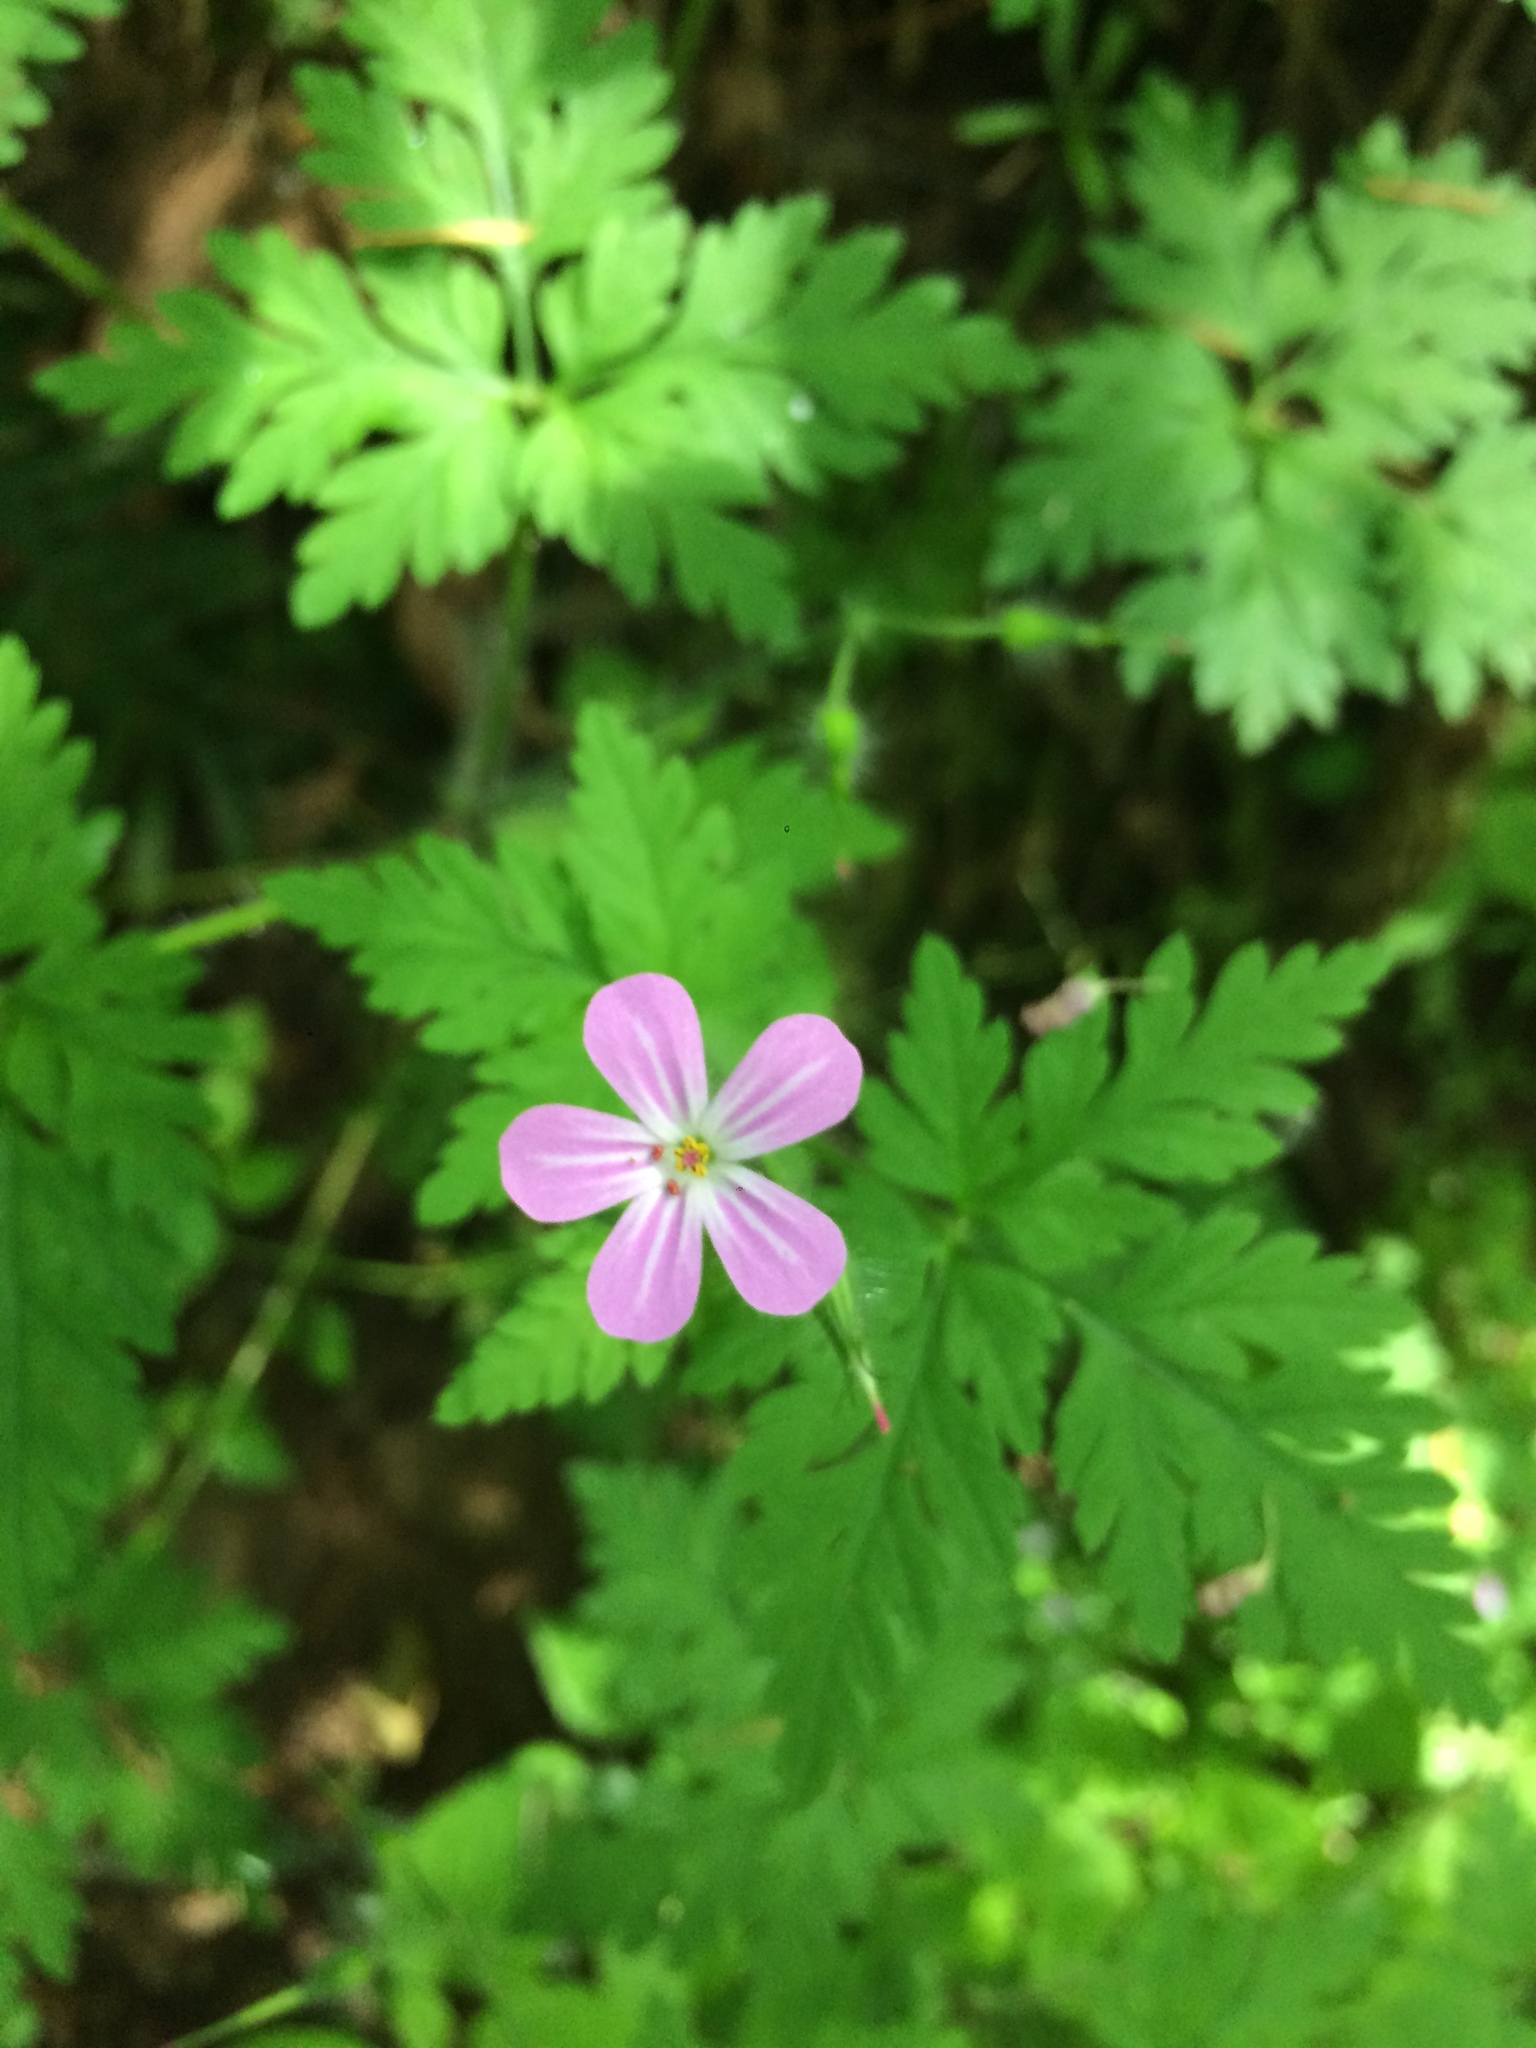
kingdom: Plantae
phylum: Tracheophyta
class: Magnoliopsida
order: Geraniales
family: Geraniaceae
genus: Geranium
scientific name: Geranium robertianum
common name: Herb-robert
